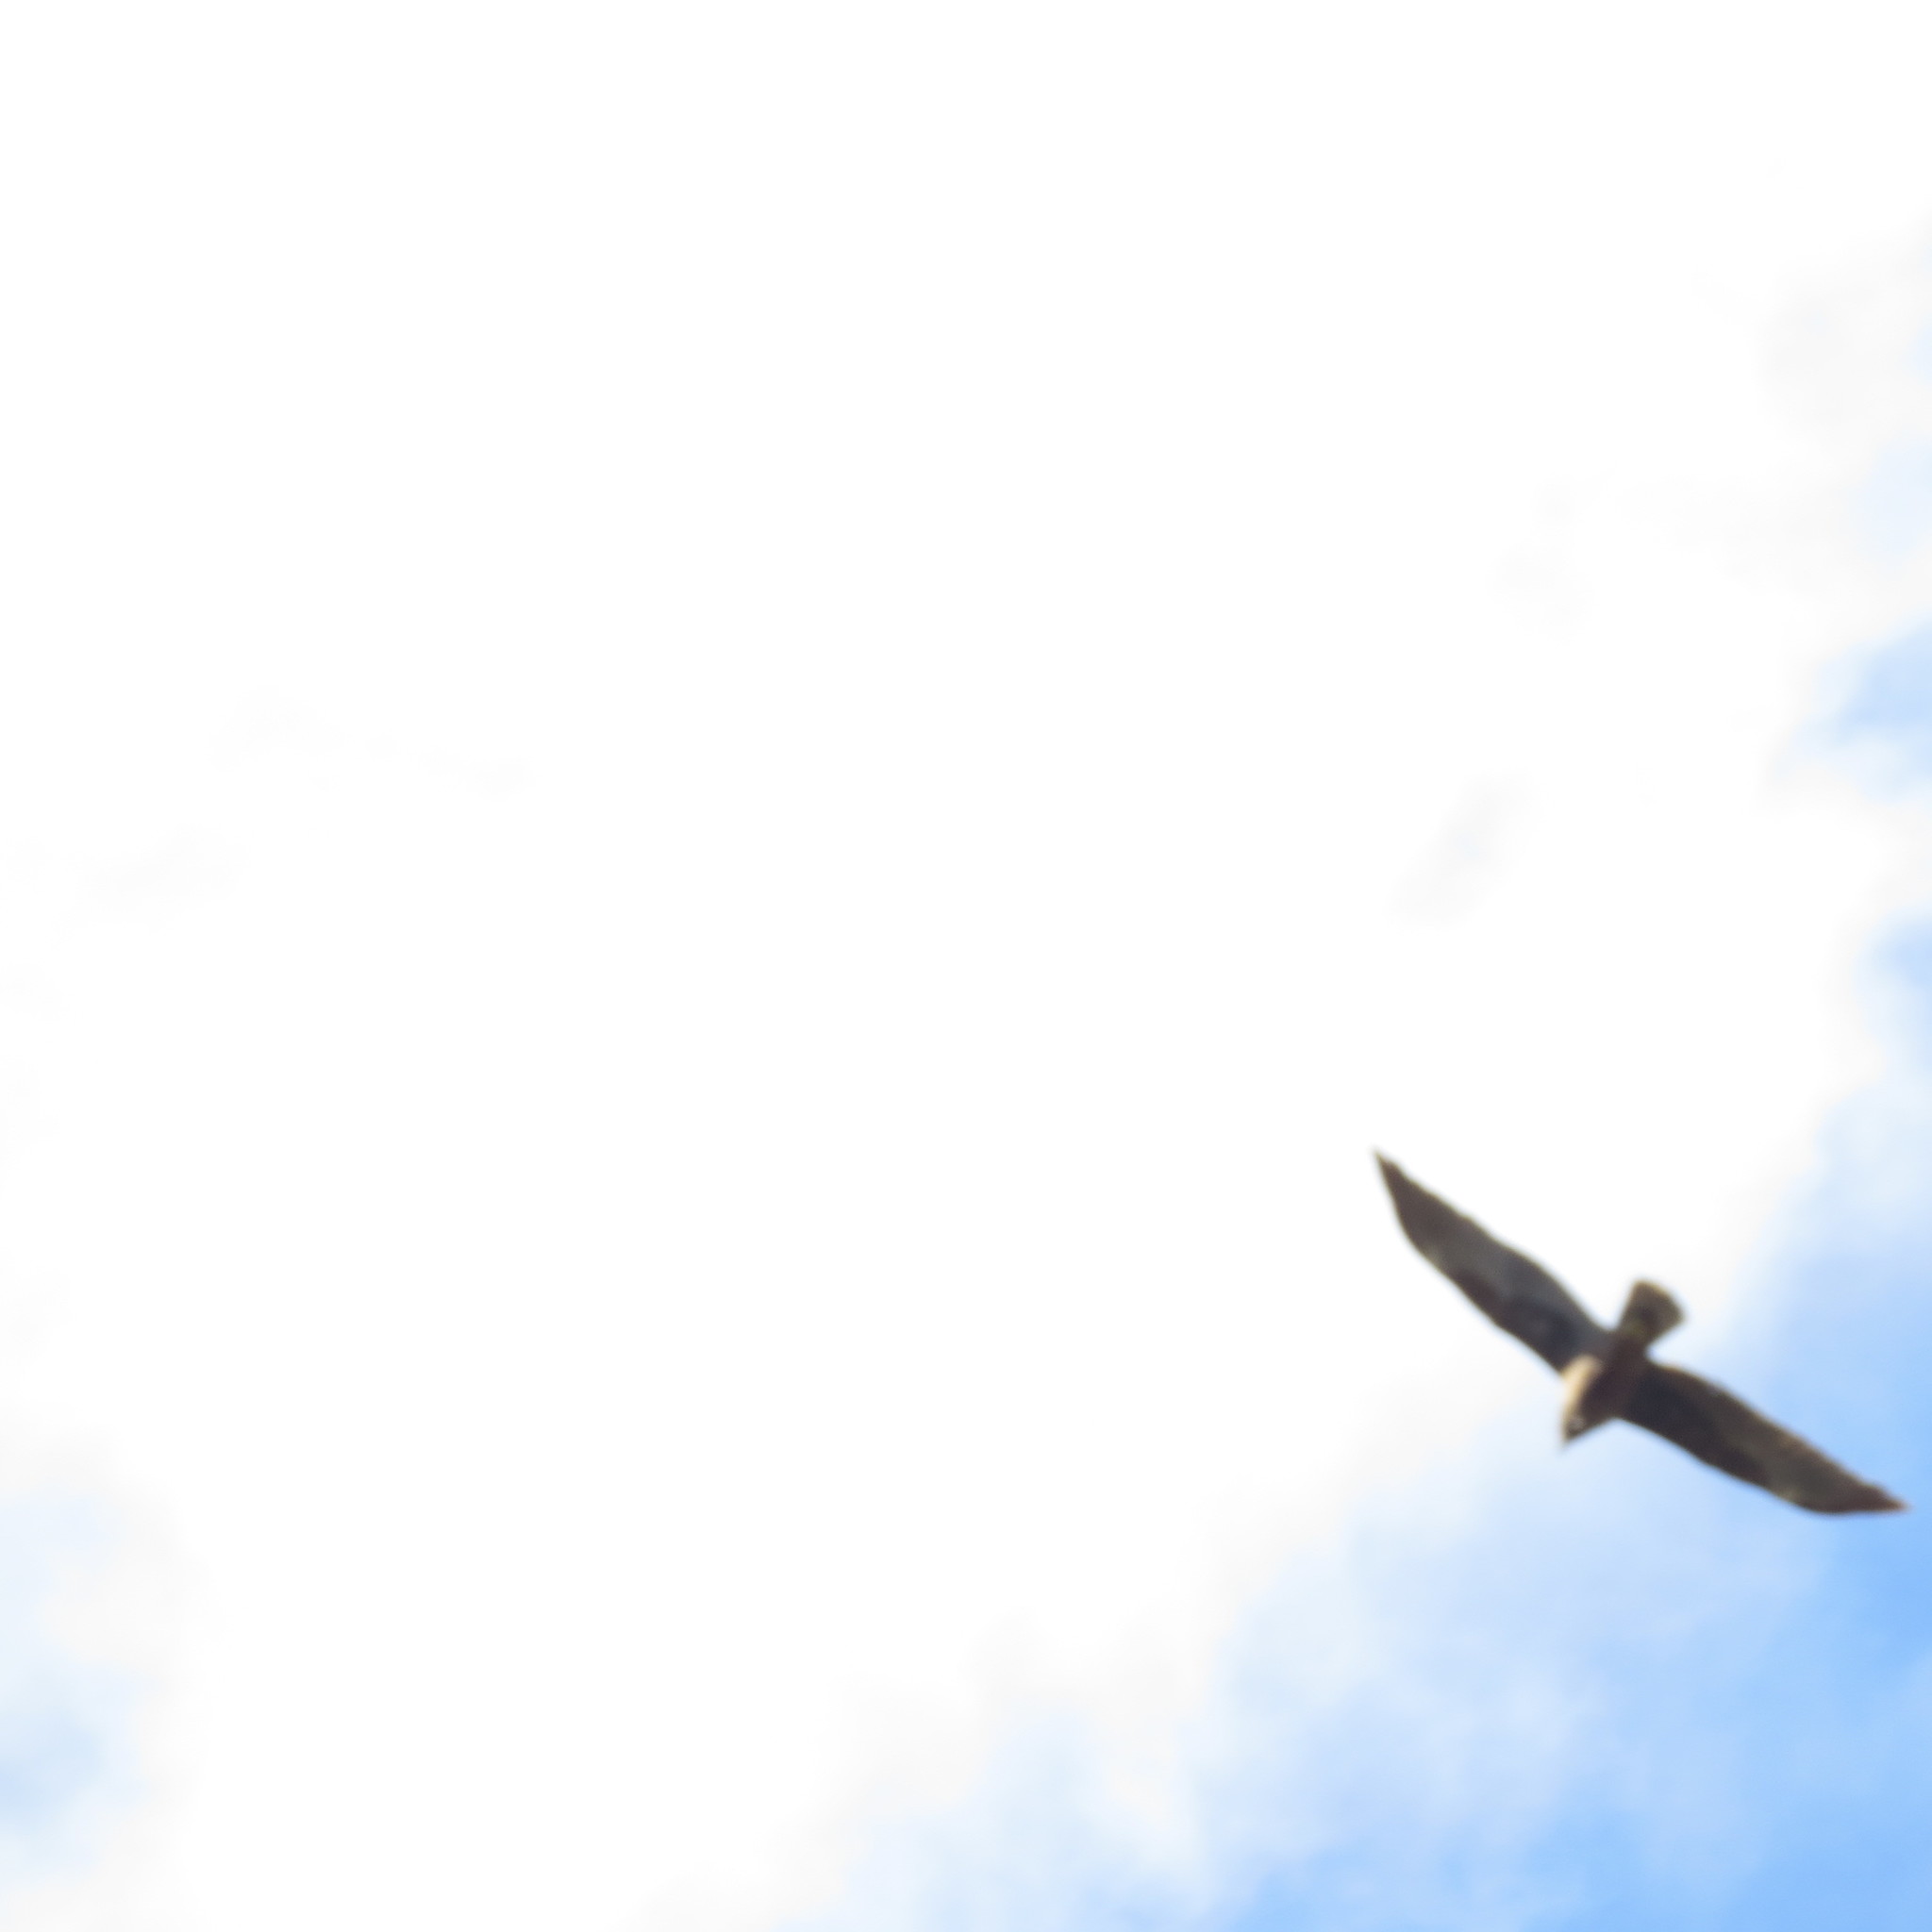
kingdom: Animalia
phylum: Chordata
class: Aves
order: Accipitriformes
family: Accipitridae
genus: Pernis
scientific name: Pernis apivorus
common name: European honey buzzard
